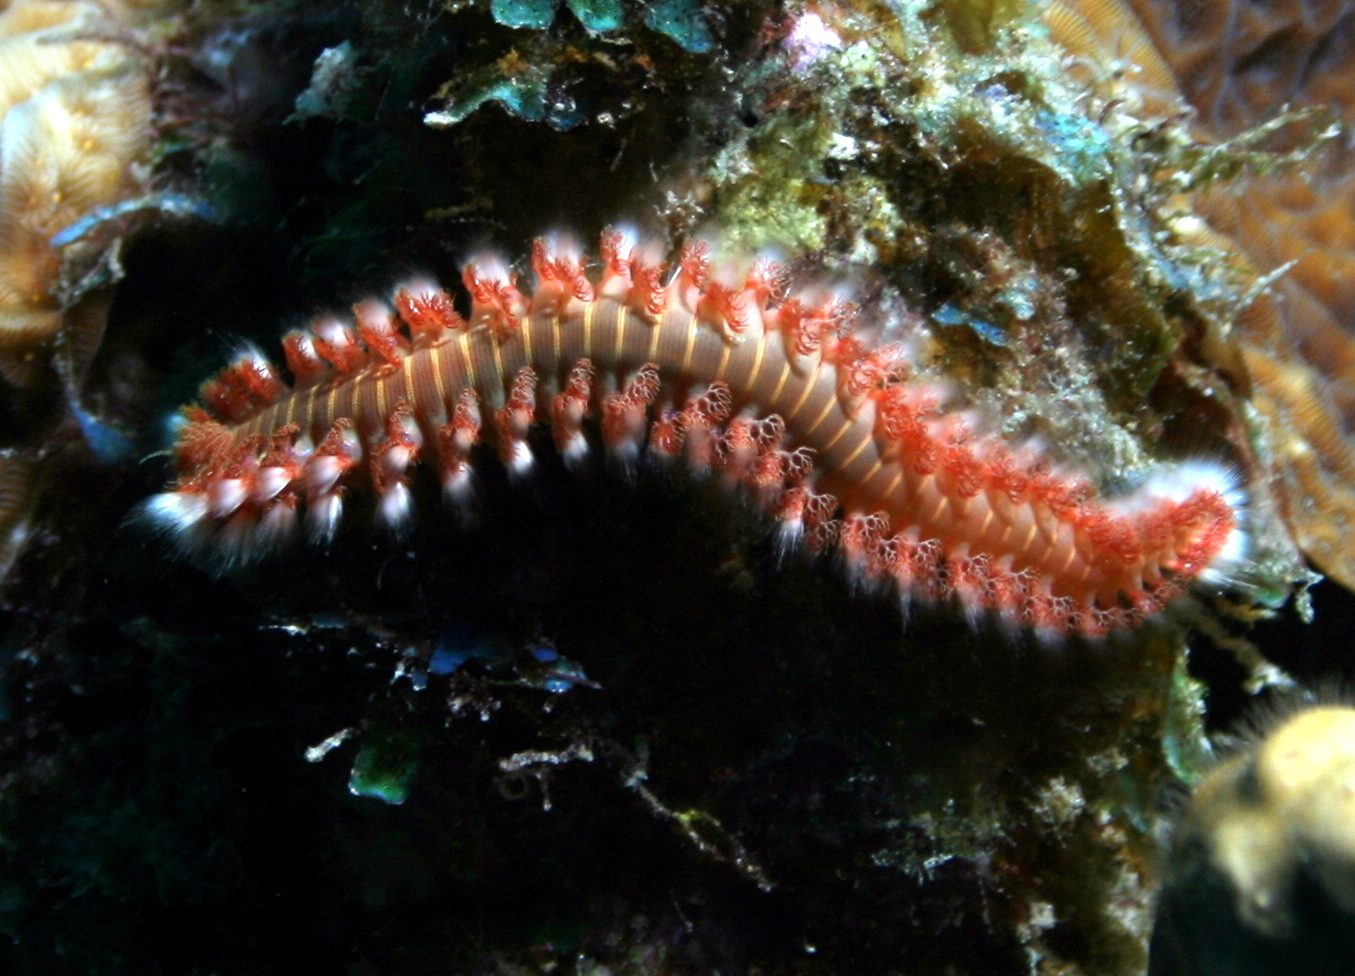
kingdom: Animalia
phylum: Annelida
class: Polychaeta
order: Amphinomida
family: Amphinomidae
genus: Hermodice
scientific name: Hermodice carunculata
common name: Bearded fireworm
